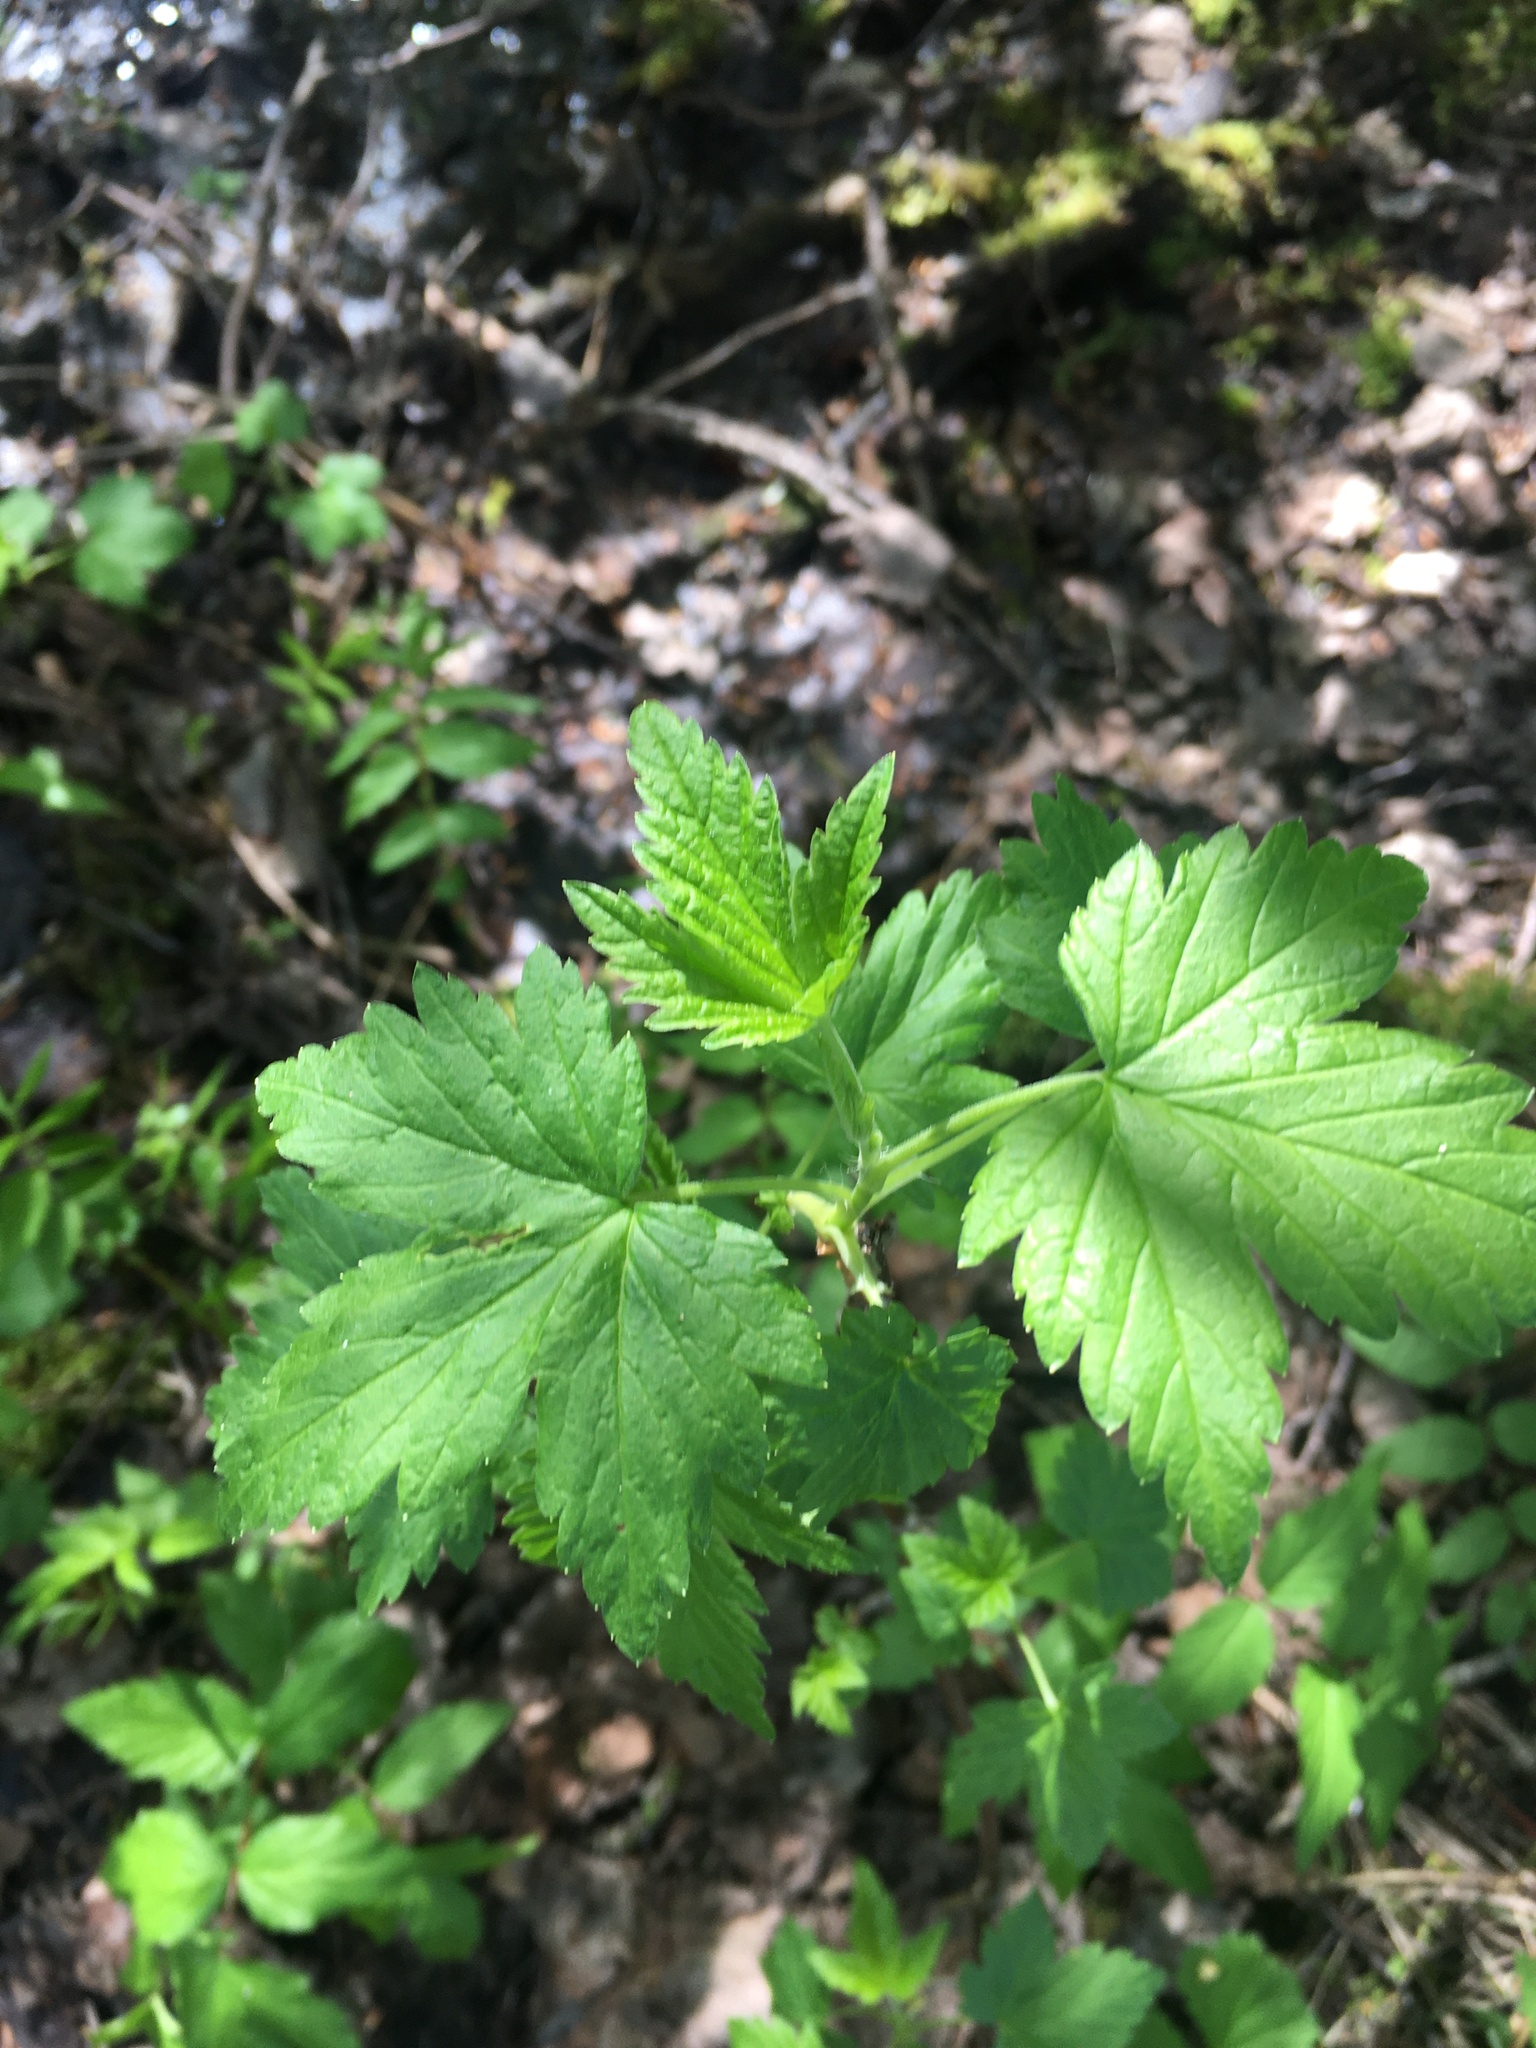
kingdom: Plantae
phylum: Tracheophyta
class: Magnoliopsida
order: Saxifragales
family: Grossulariaceae
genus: Ribes
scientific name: Ribes nigrum
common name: Black currant
